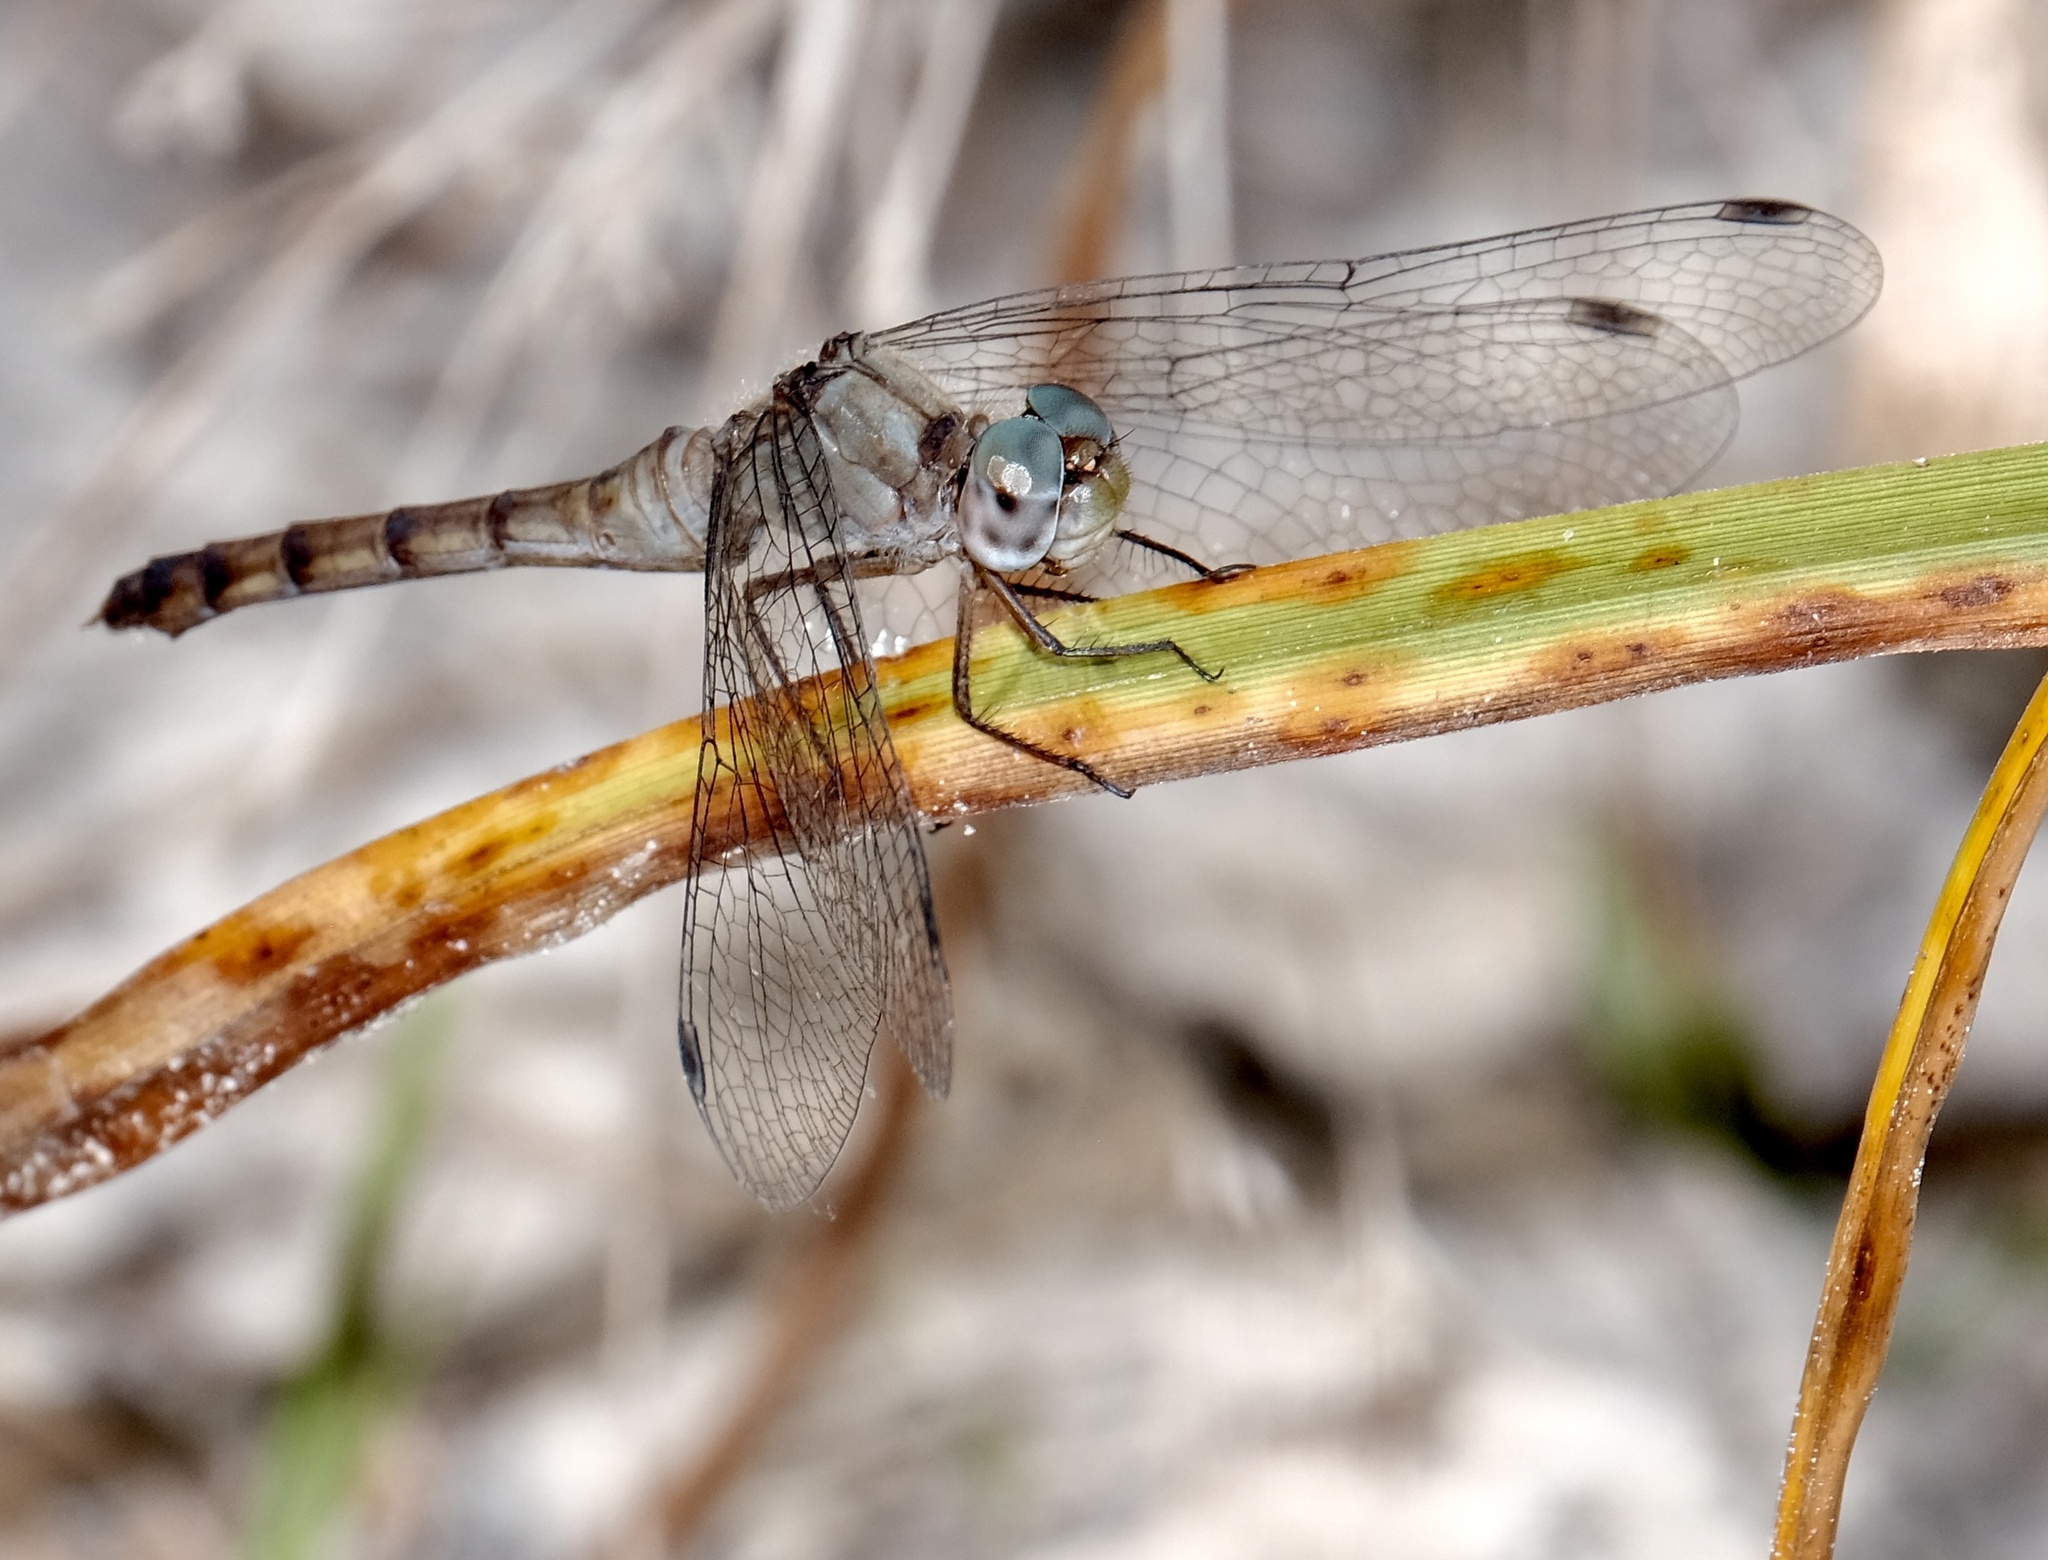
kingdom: Animalia
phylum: Arthropoda
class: Insecta
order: Odonata
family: Libellulidae
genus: Sympetrum
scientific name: Sympetrum ambiguum
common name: Blue-faced meadowhawk
